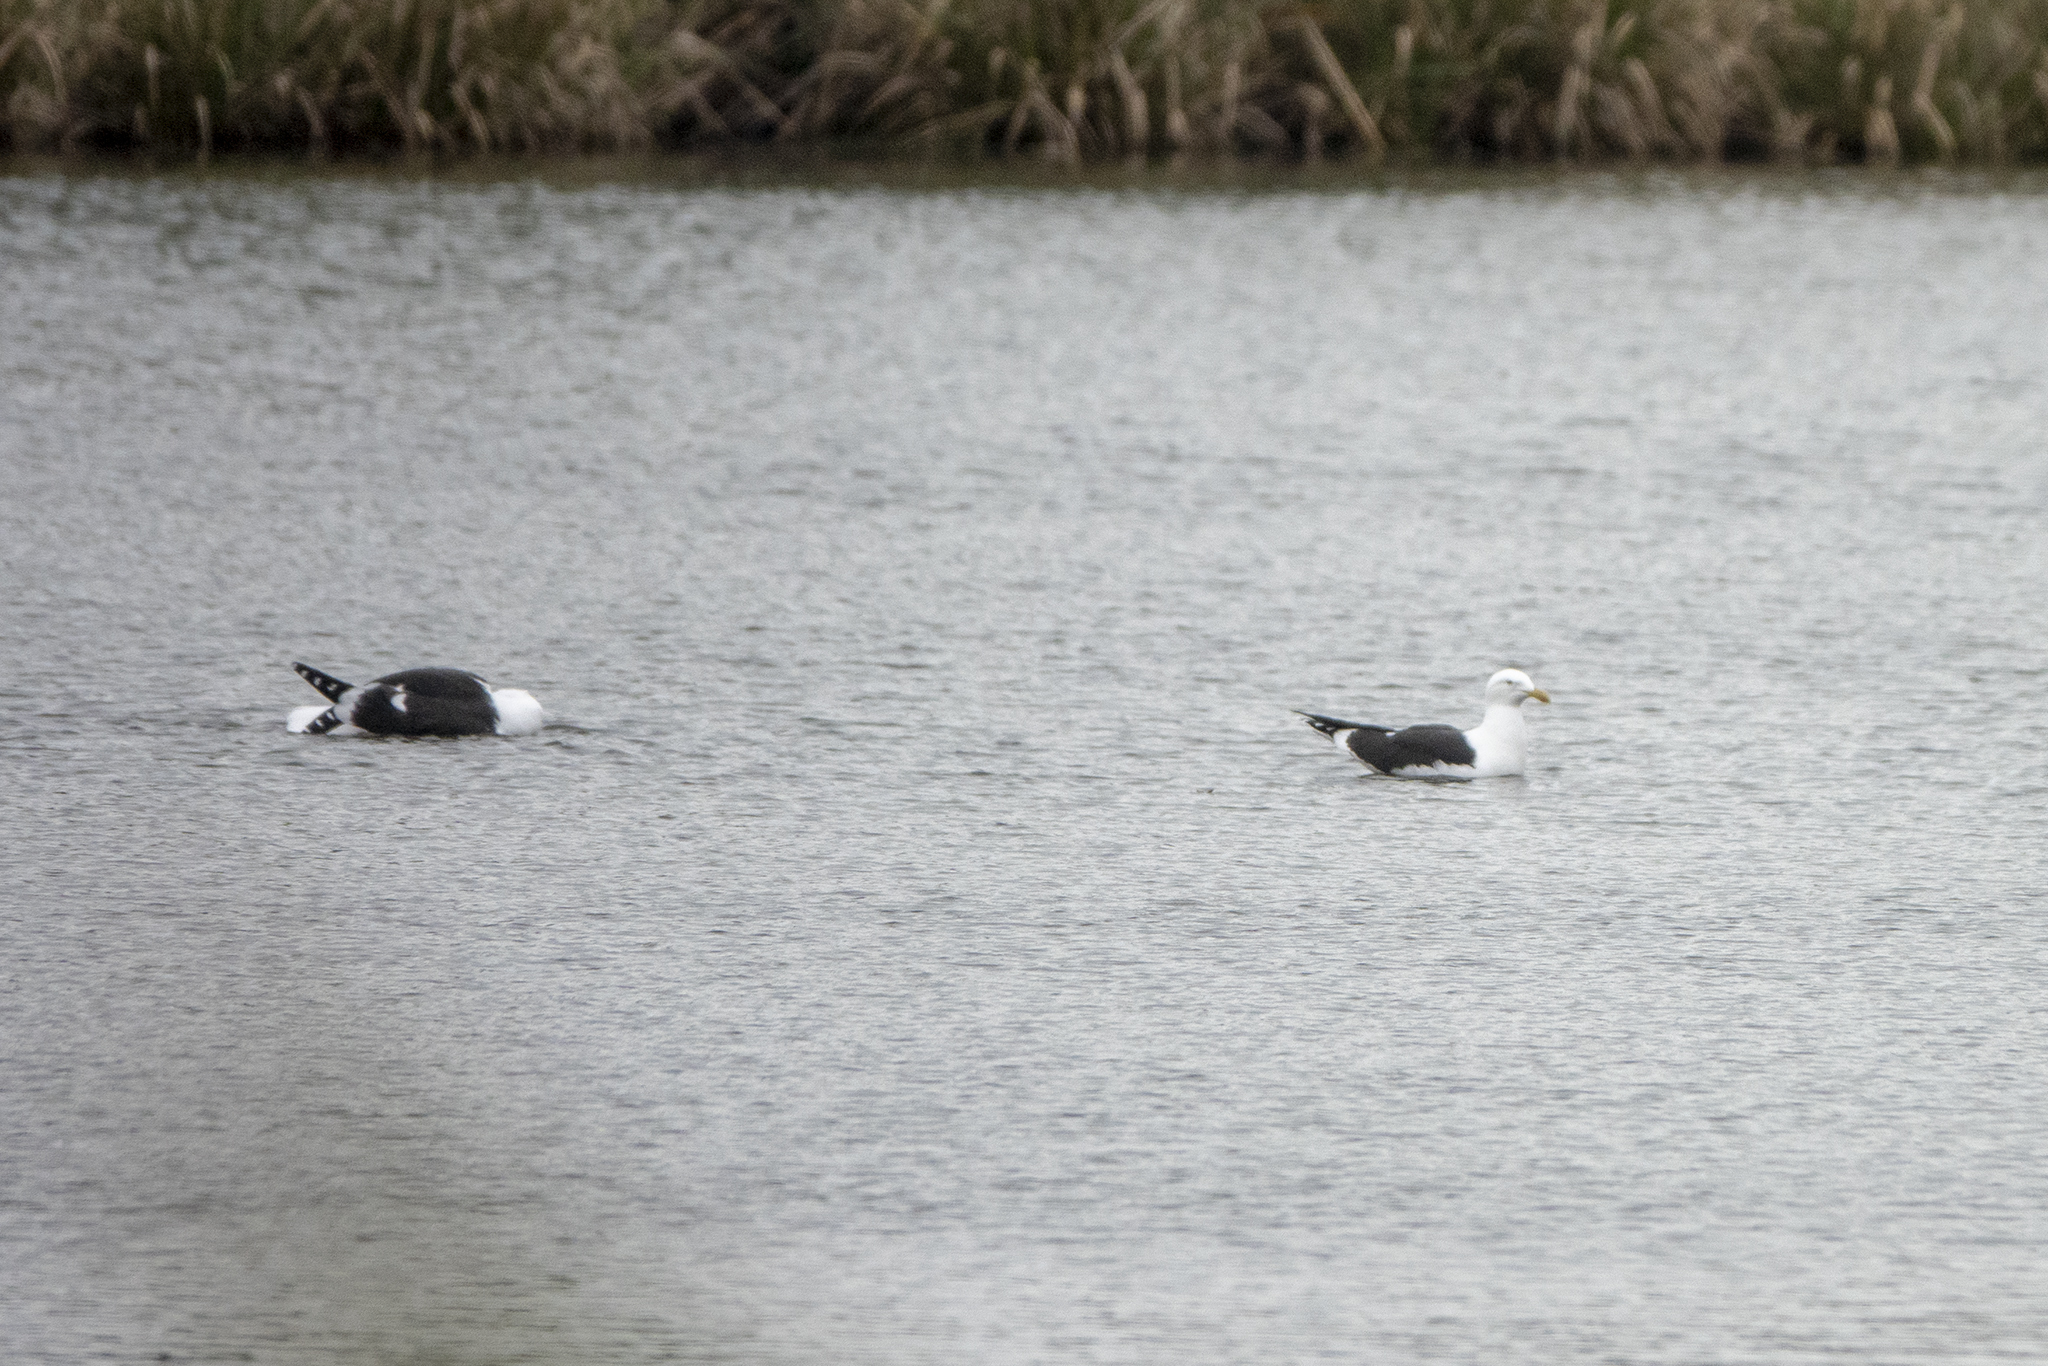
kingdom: Animalia
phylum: Chordata
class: Aves
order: Charadriiformes
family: Laridae
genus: Larus
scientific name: Larus dominicanus
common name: Kelp gull
